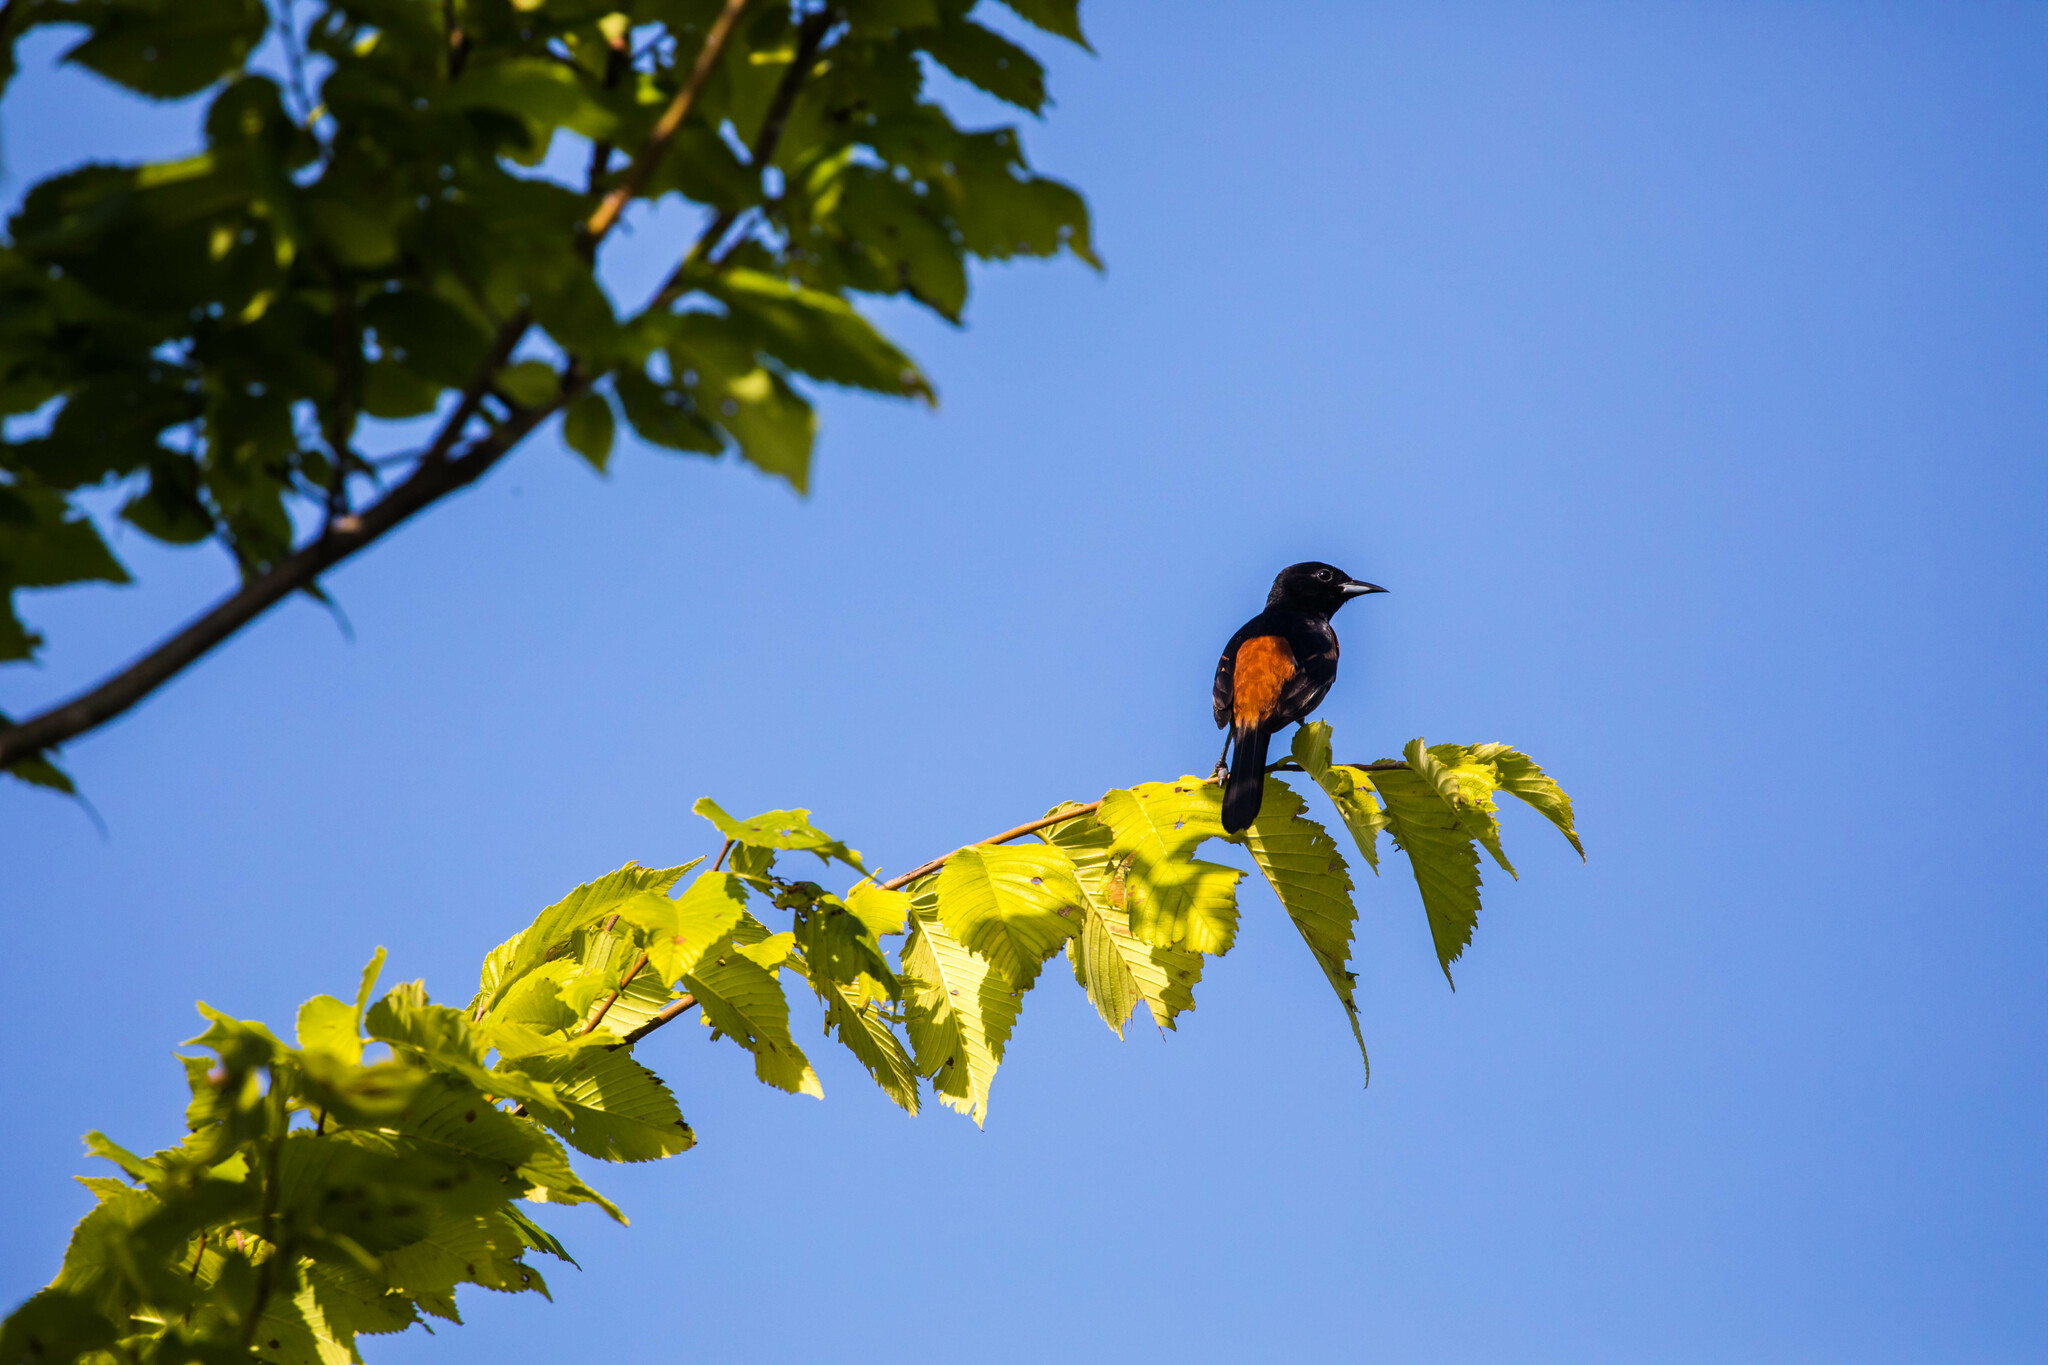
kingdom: Animalia
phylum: Chordata
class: Aves
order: Passeriformes
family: Icteridae
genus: Icterus
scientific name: Icterus spurius
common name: Orchard oriole
